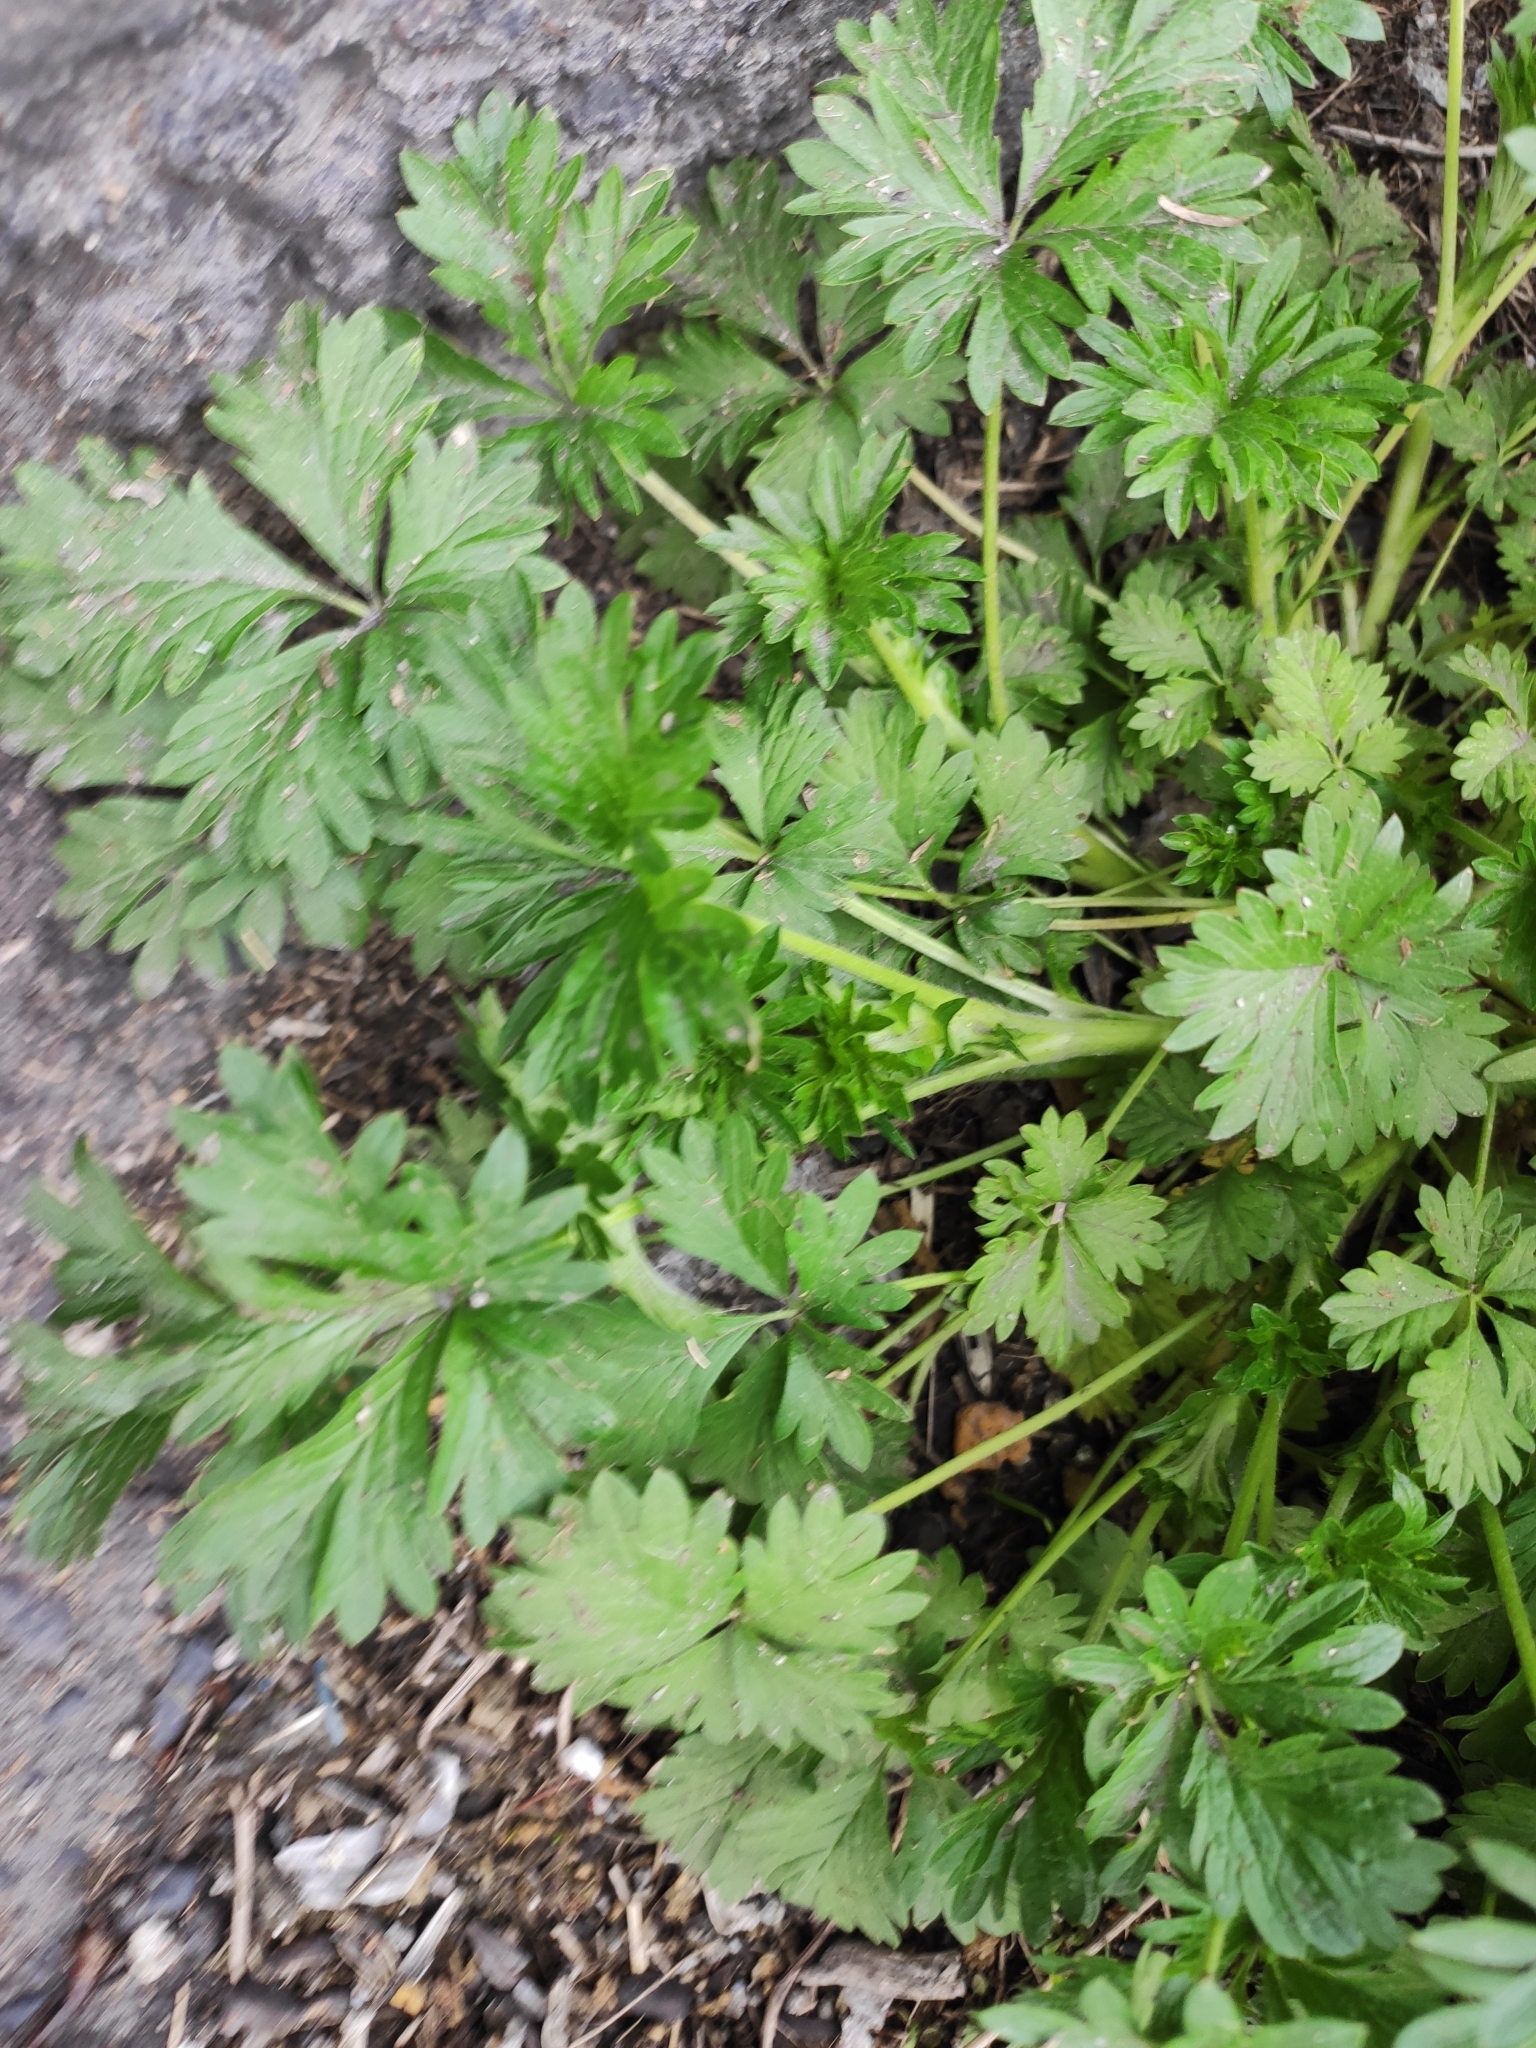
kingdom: Plantae
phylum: Tracheophyta
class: Magnoliopsida
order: Rosales
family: Rosaceae
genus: Potentilla
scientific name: Potentilla intermedia
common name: Downy cinquefoil
